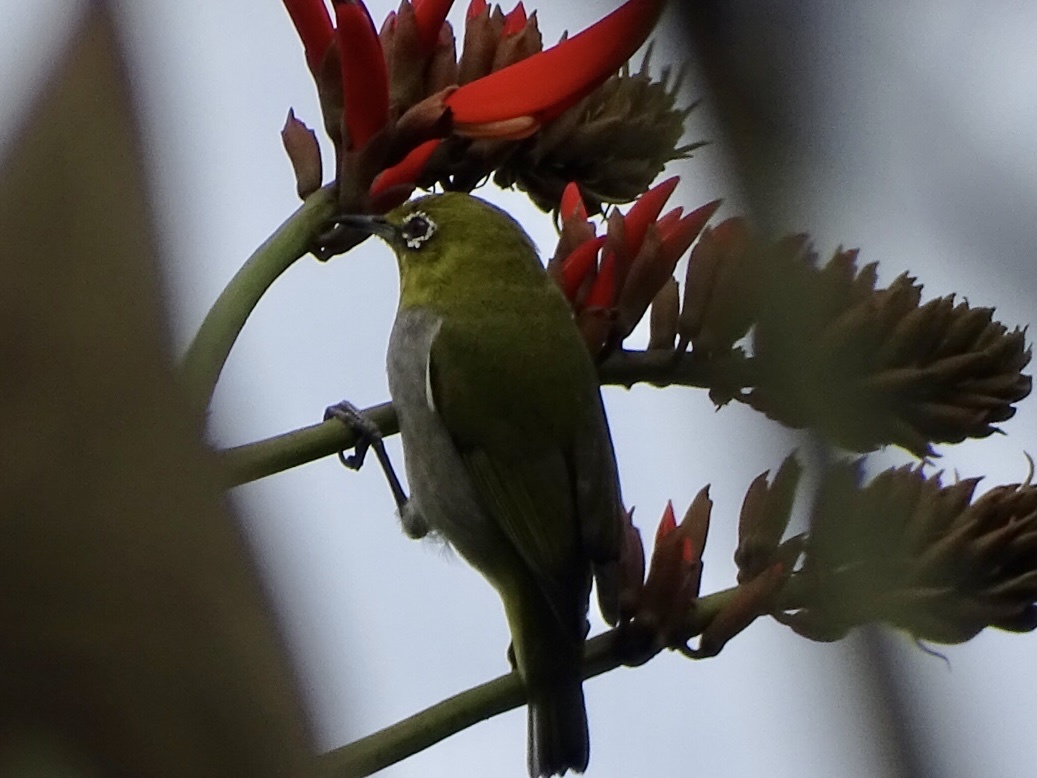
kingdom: Animalia
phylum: Chordata
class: Aves
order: Passeriformes
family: Zosteropidae
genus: Zosterops
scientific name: Zosterops simplex
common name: Swinhoe's white-eye
